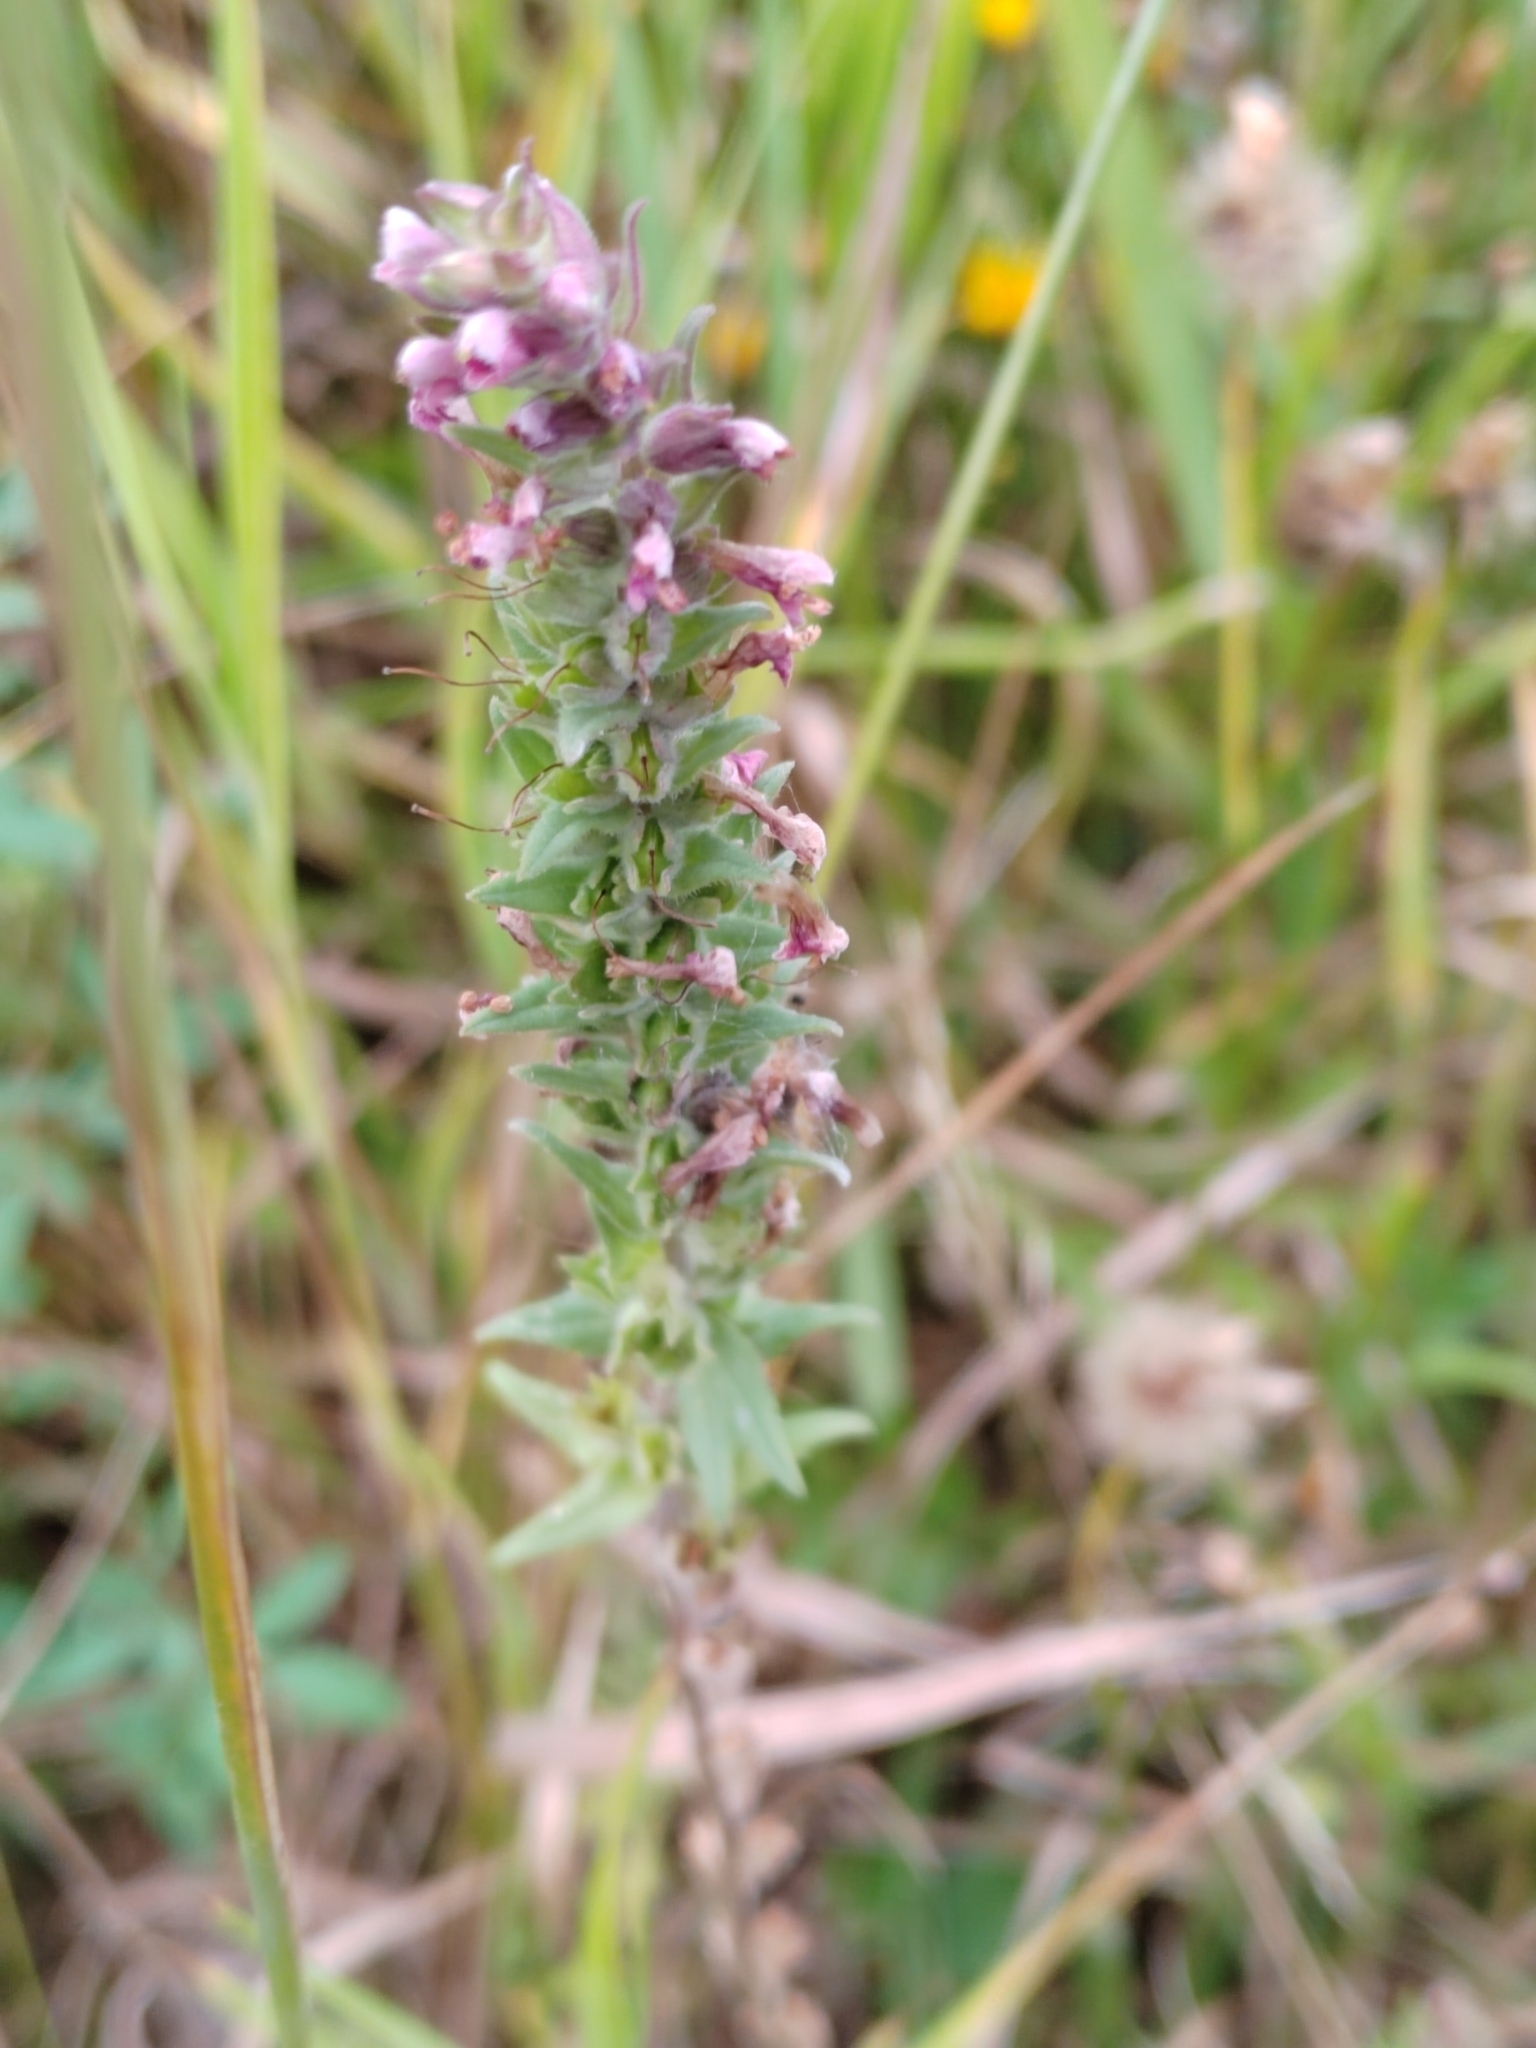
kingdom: Plantae
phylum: Tracheophyta
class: Magnoliopsida
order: Lamiales
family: Orobanchaceae
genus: Odontites
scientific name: Odontites vulgaris
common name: Broomrape
